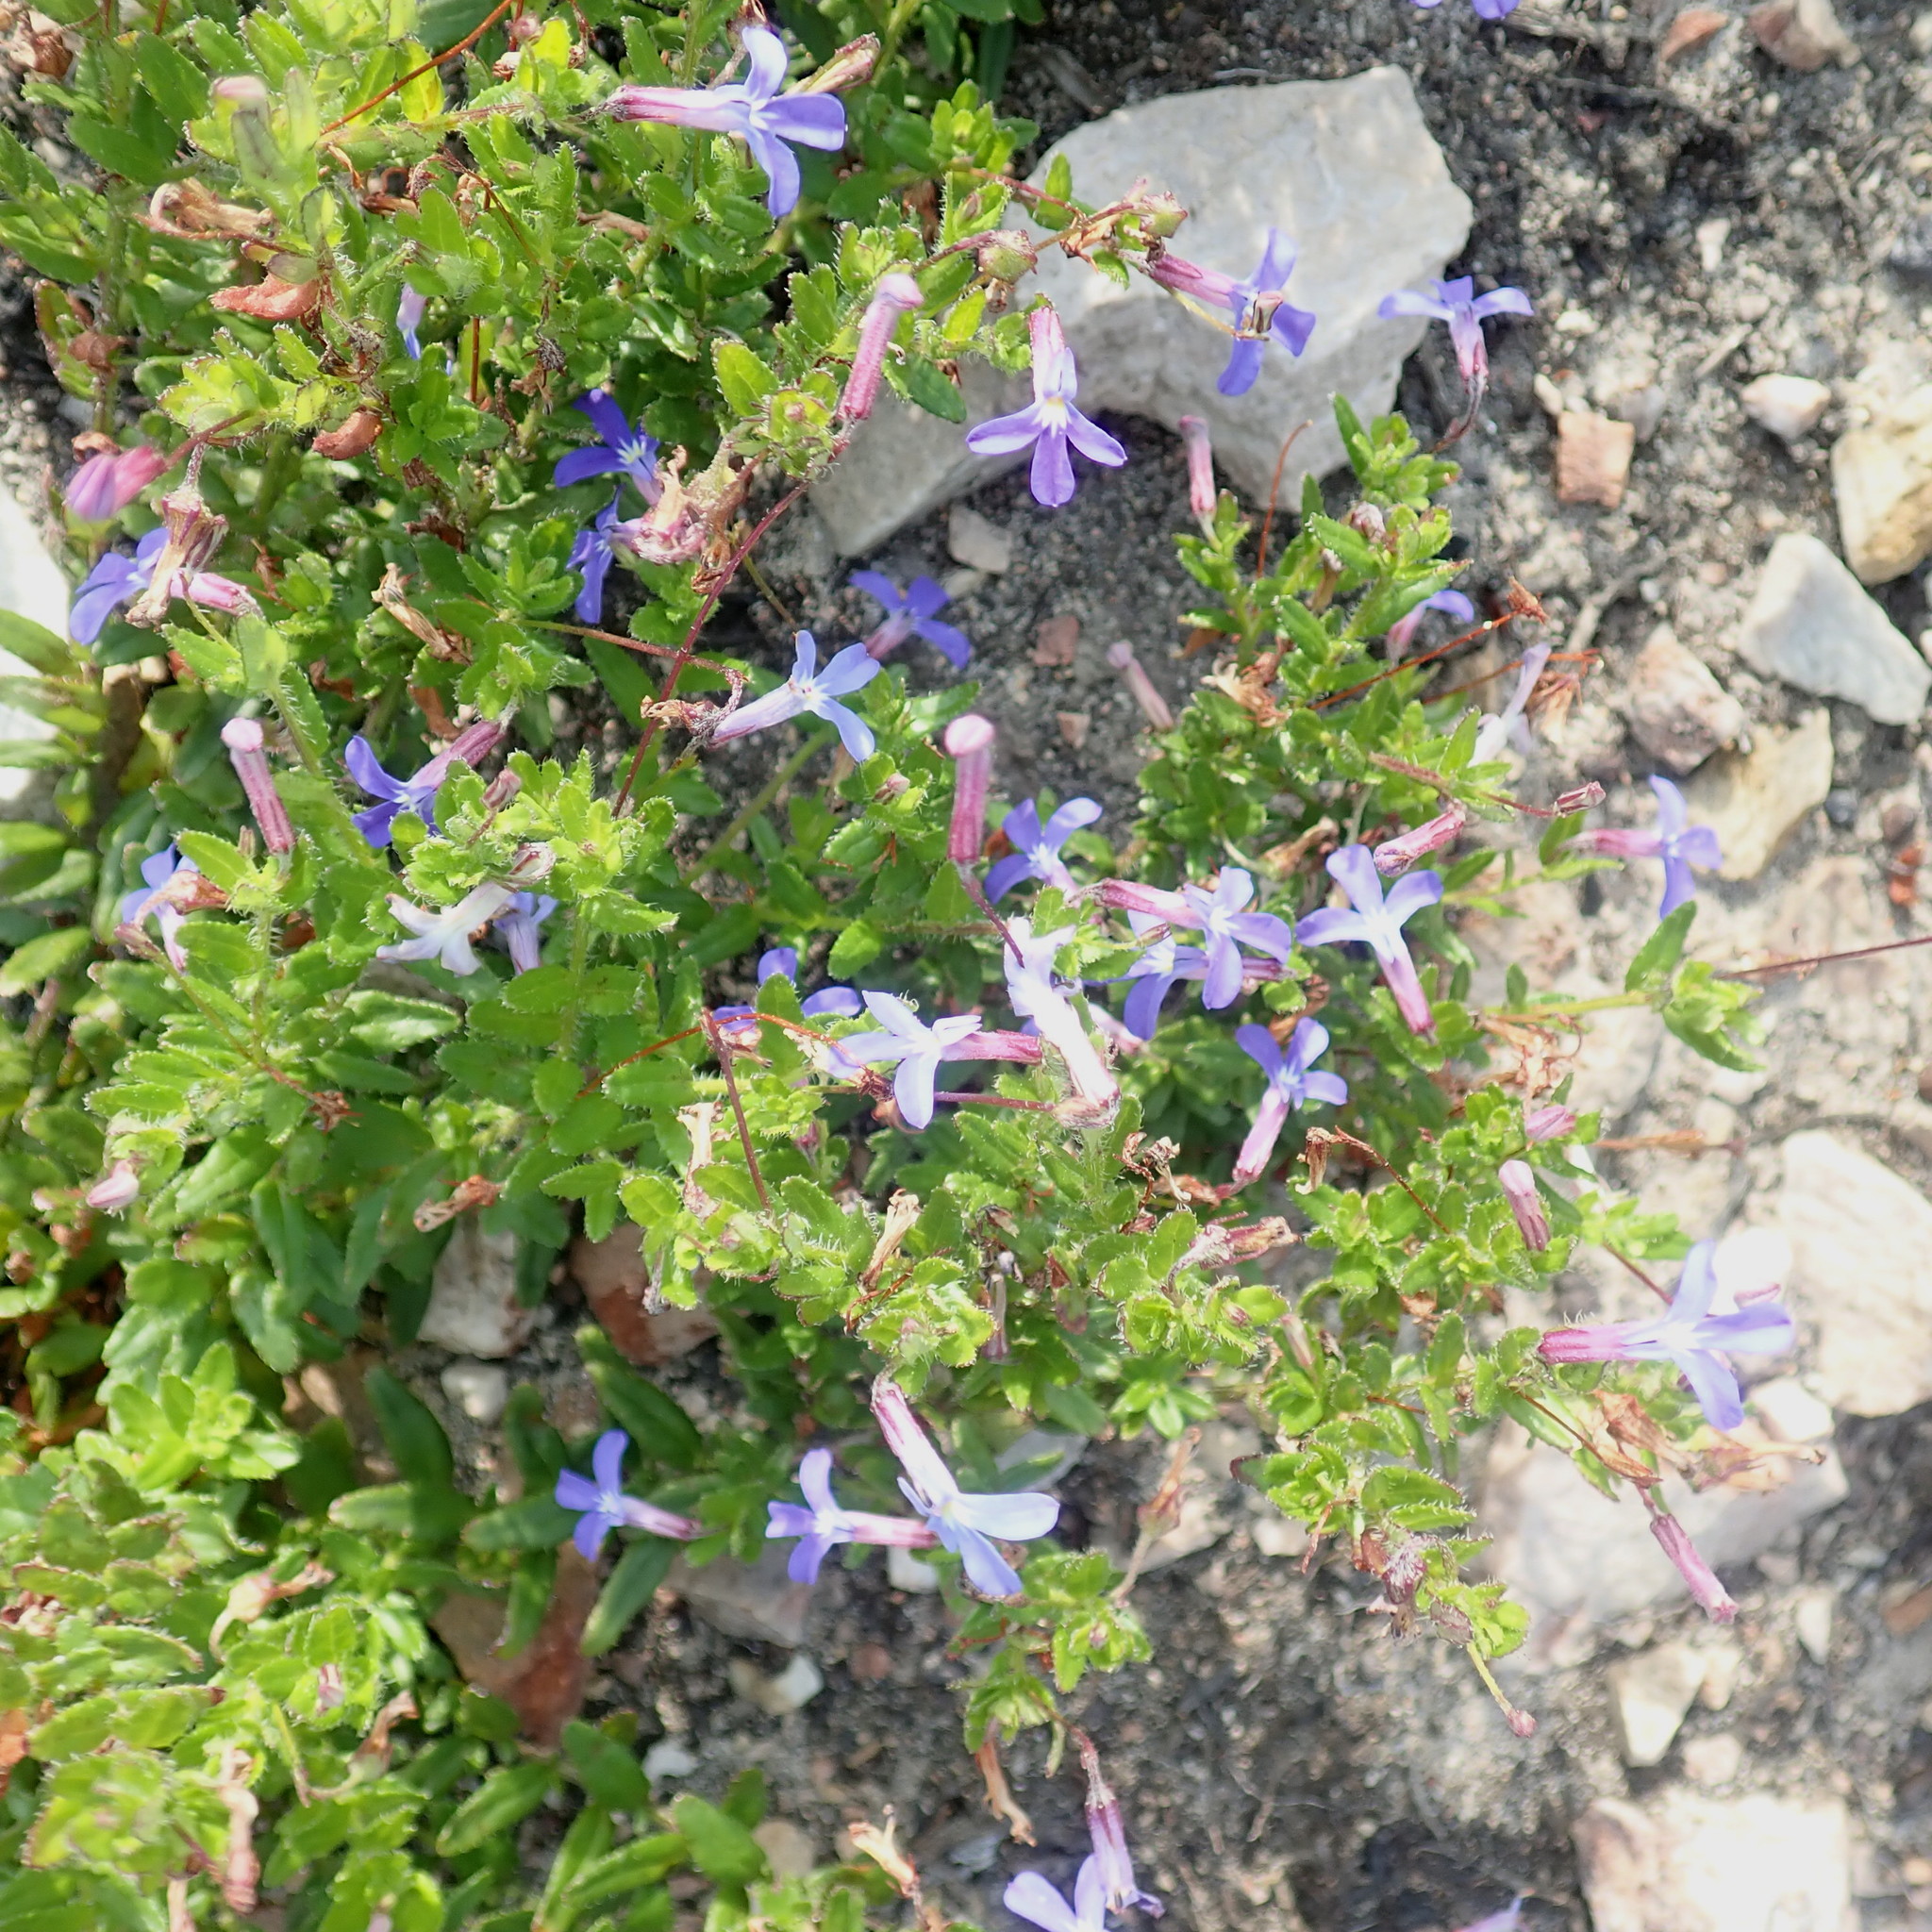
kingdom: Plantae
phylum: Tracheophyta
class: Magnoliopsida
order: Asterales
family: Campanulaceae
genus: Lobelia
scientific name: Lobelia neglecta
